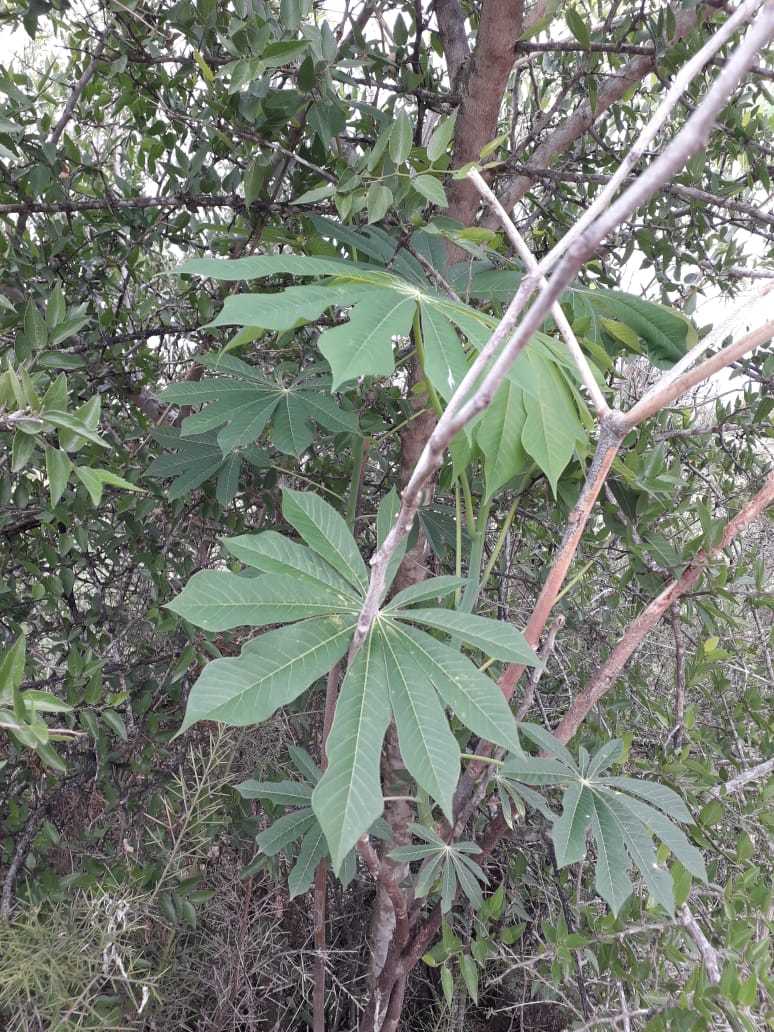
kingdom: Plantae
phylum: Tracheophyta
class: Magnoliopsida
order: Malpighiales
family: Euphorbiaceae
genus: Manihot
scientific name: Manihot grahamii
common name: Graham's manihot
